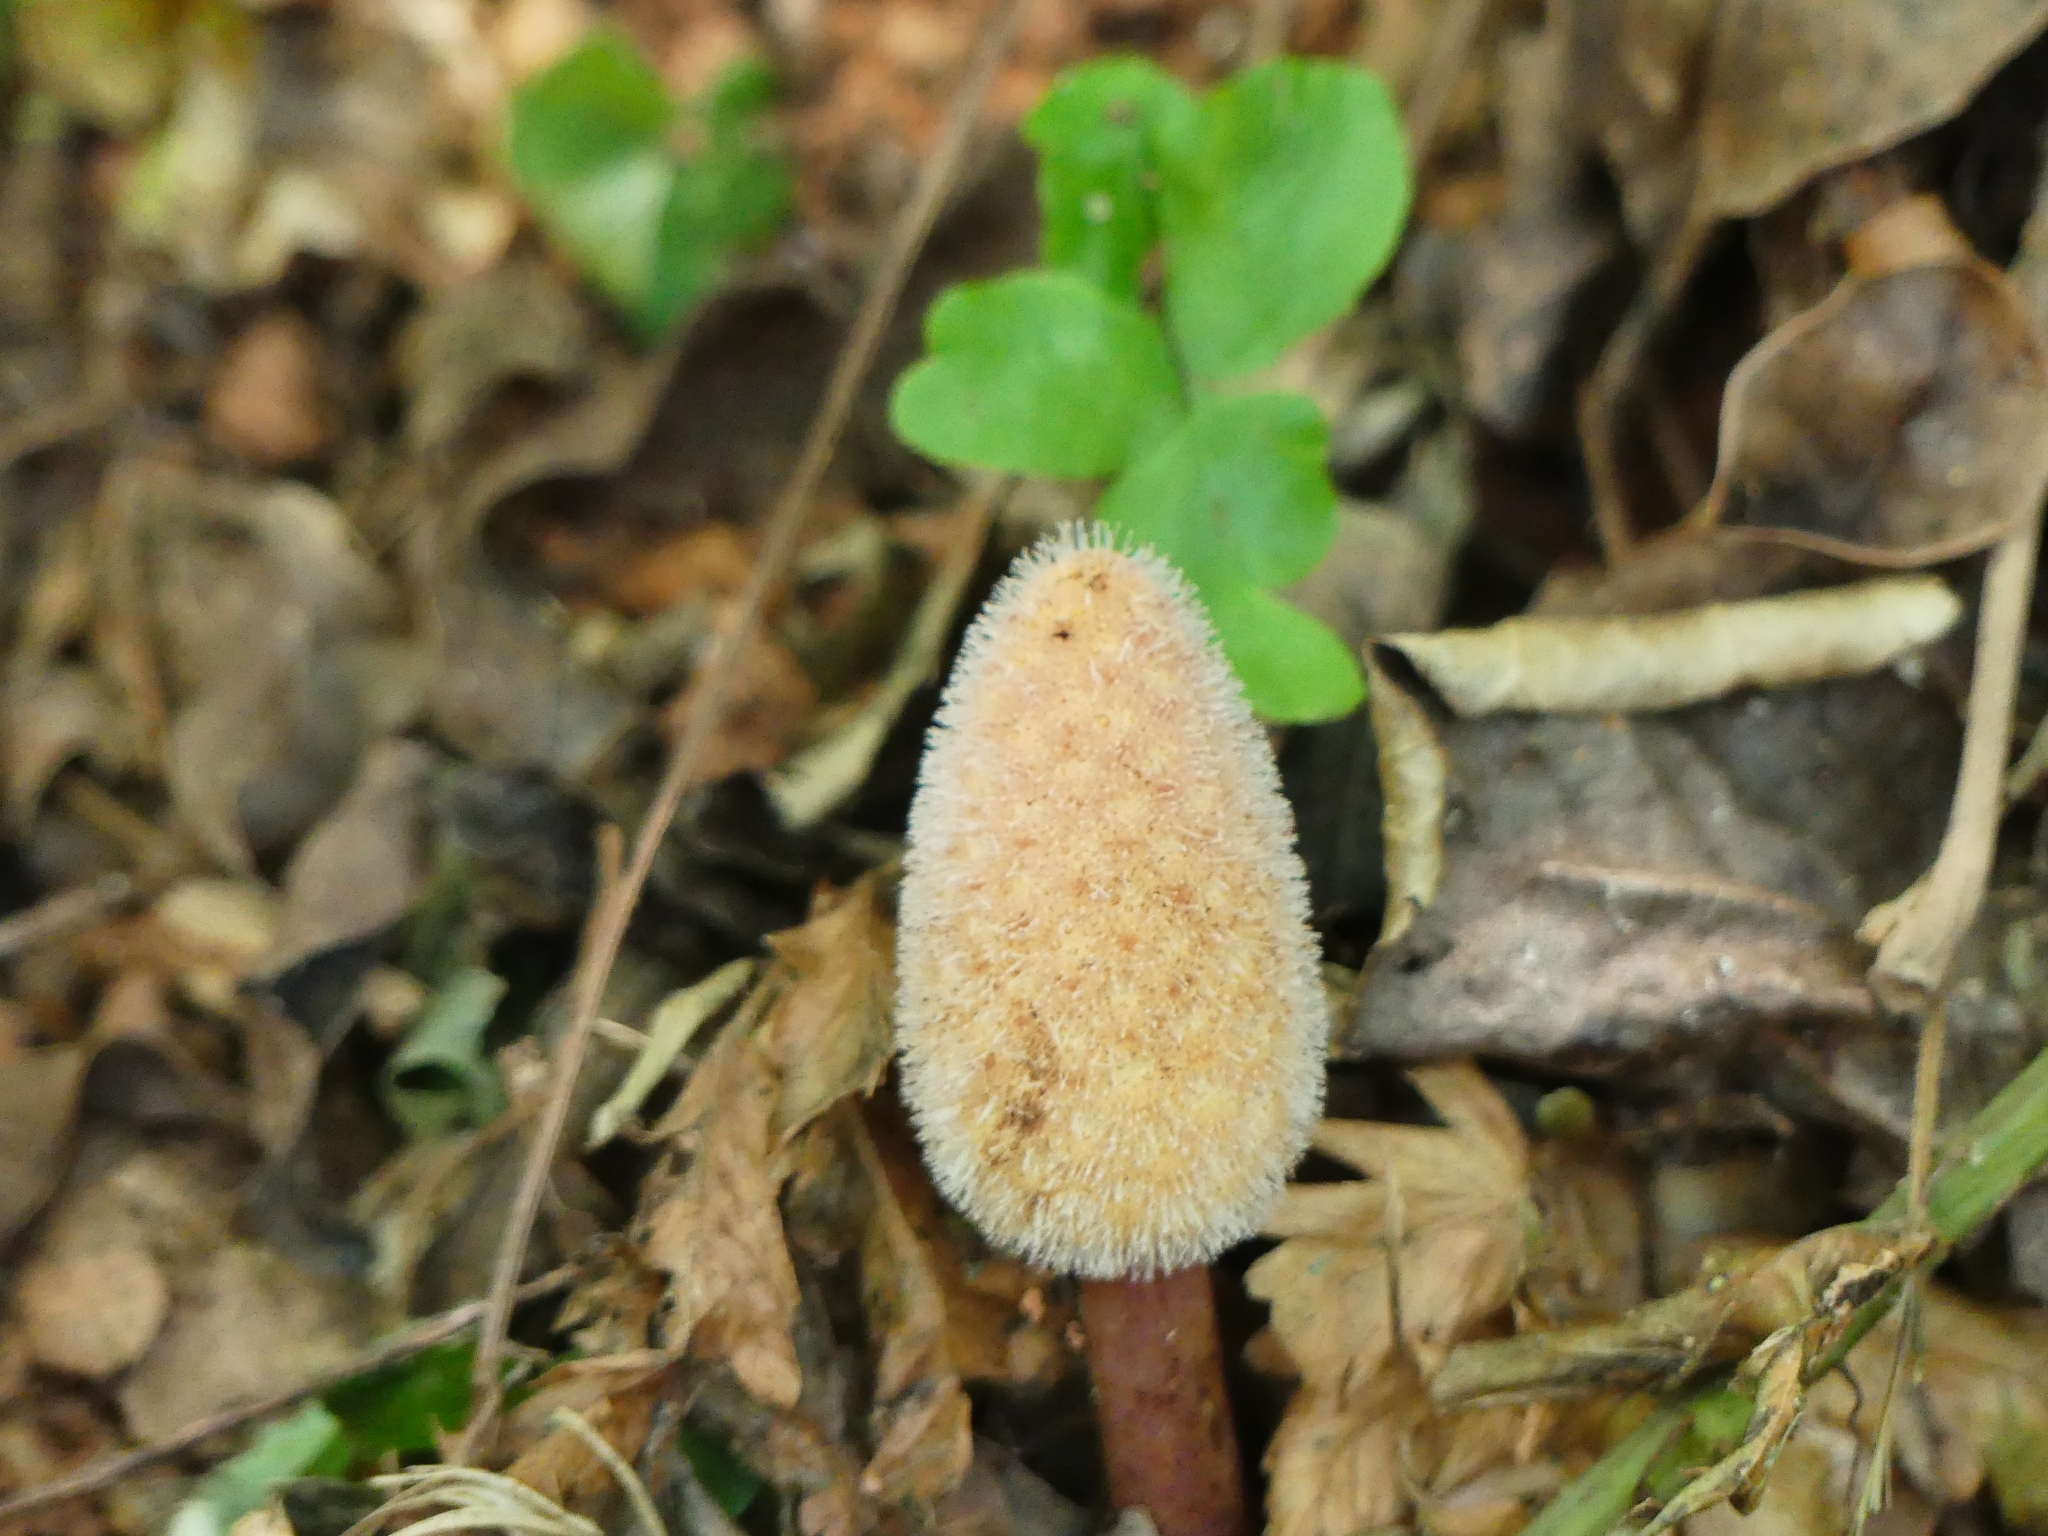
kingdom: Plantae
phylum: Tracheophyta
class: Magnoliopsida
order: Santalales
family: Balanophoraceae
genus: Helosis
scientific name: Helosis cayennensis
